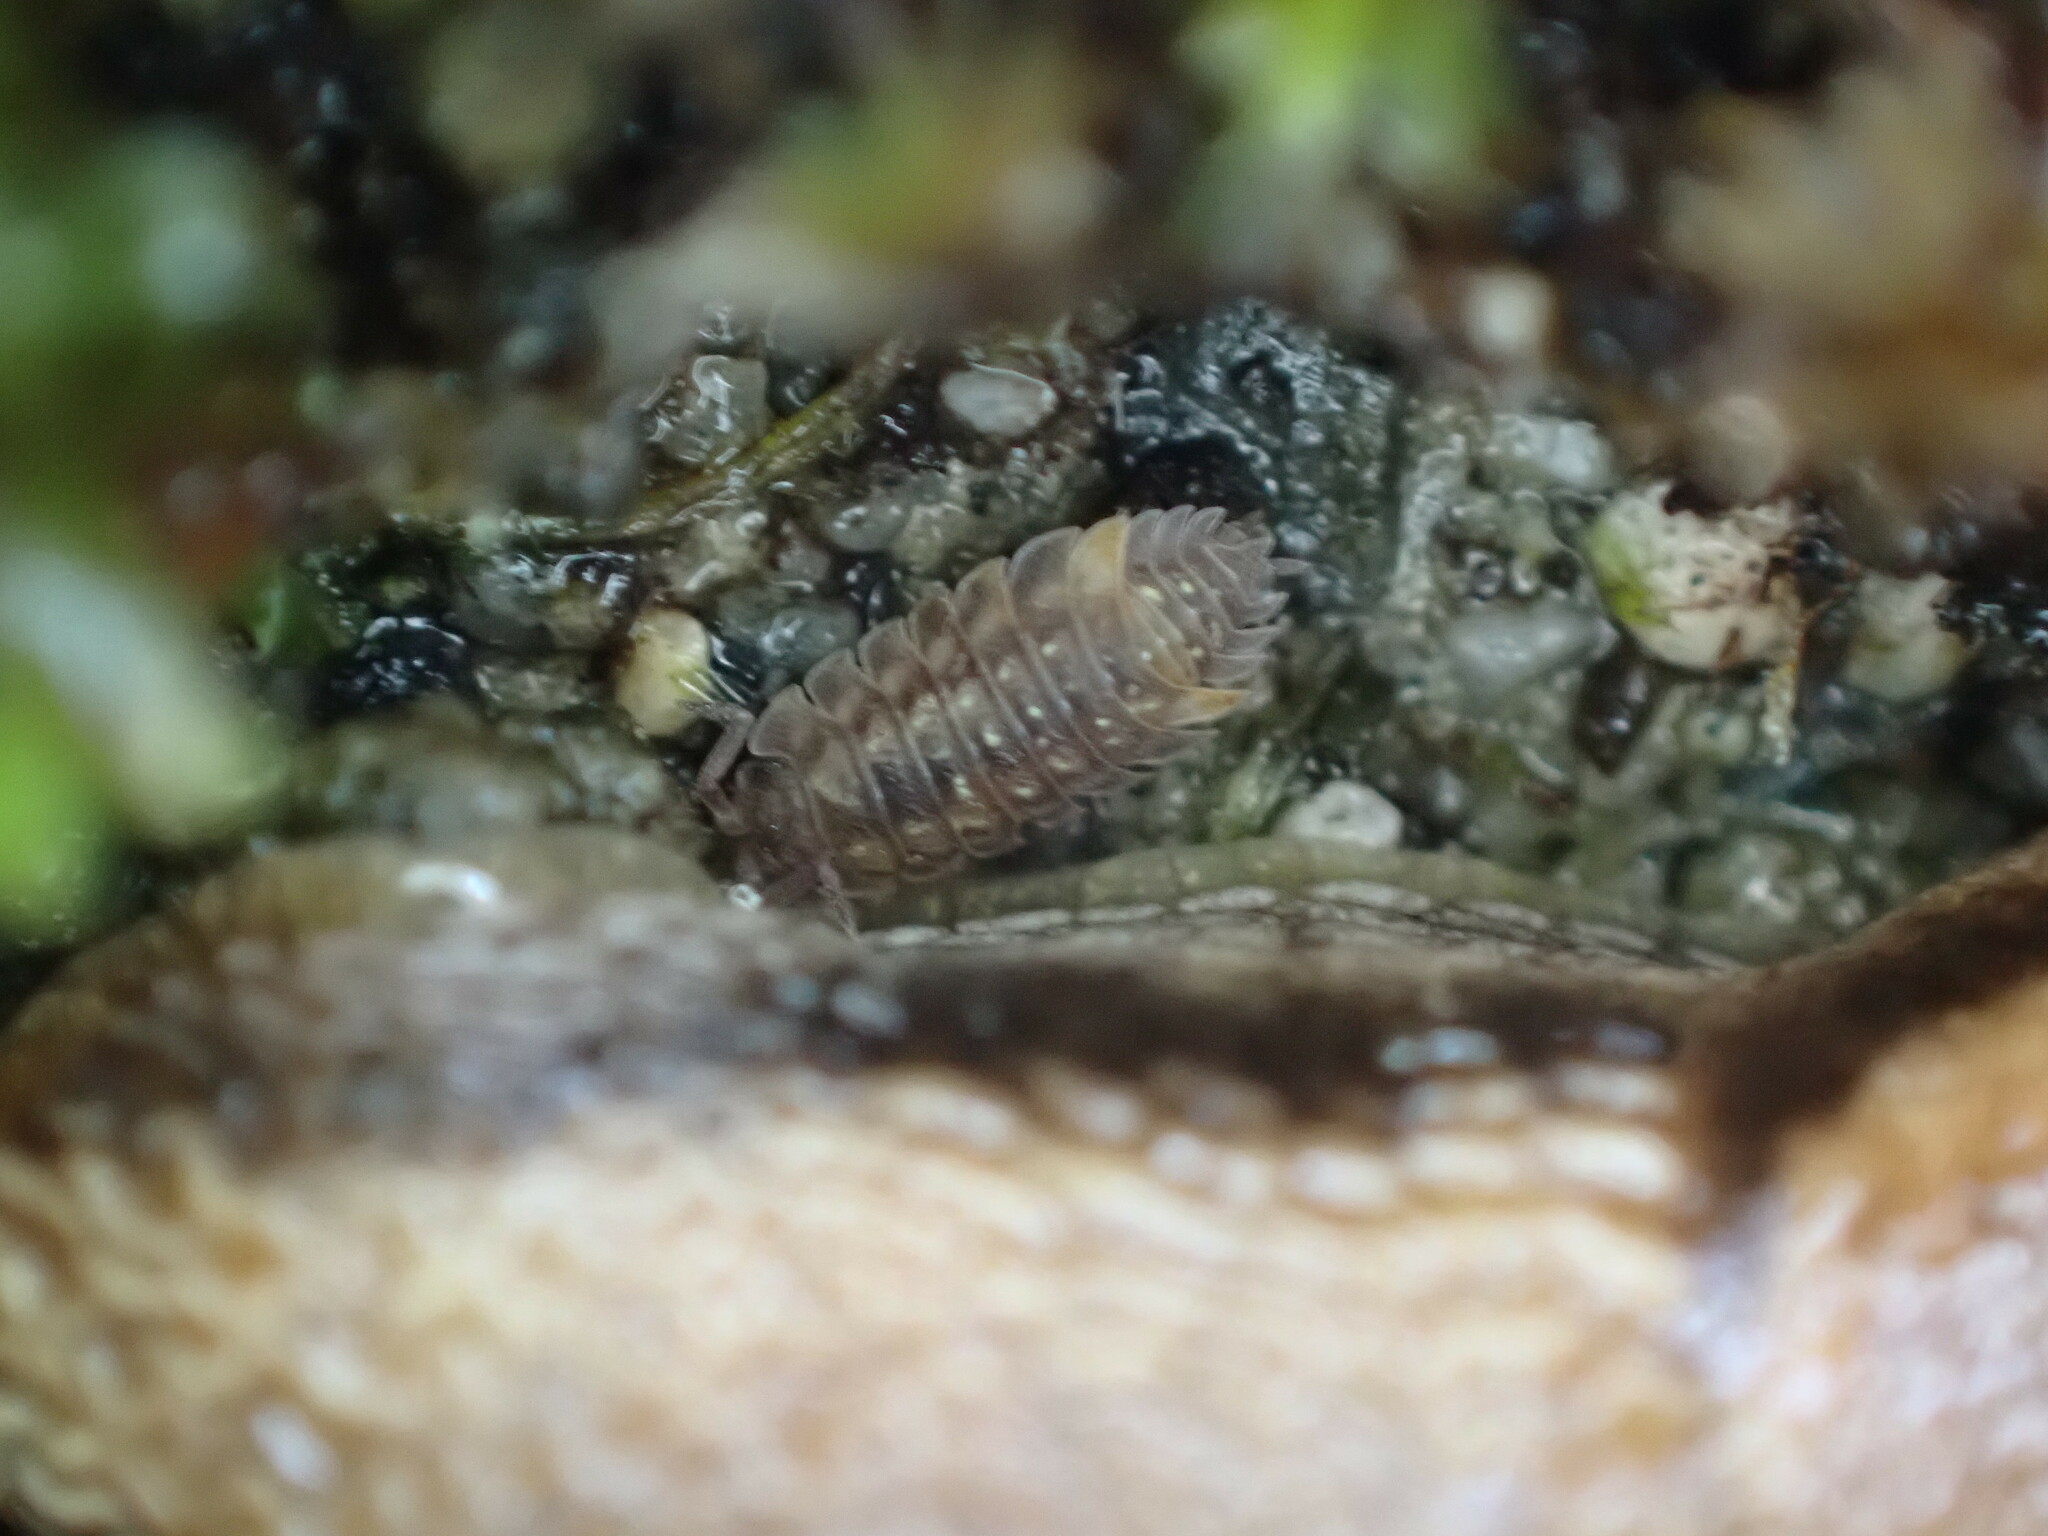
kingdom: Animalia
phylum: Arthropoda
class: Malacostraca
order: Isopoda
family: Oniscidae
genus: Oniscus
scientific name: Oniscus asellus
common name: Common shiny woodlouse
